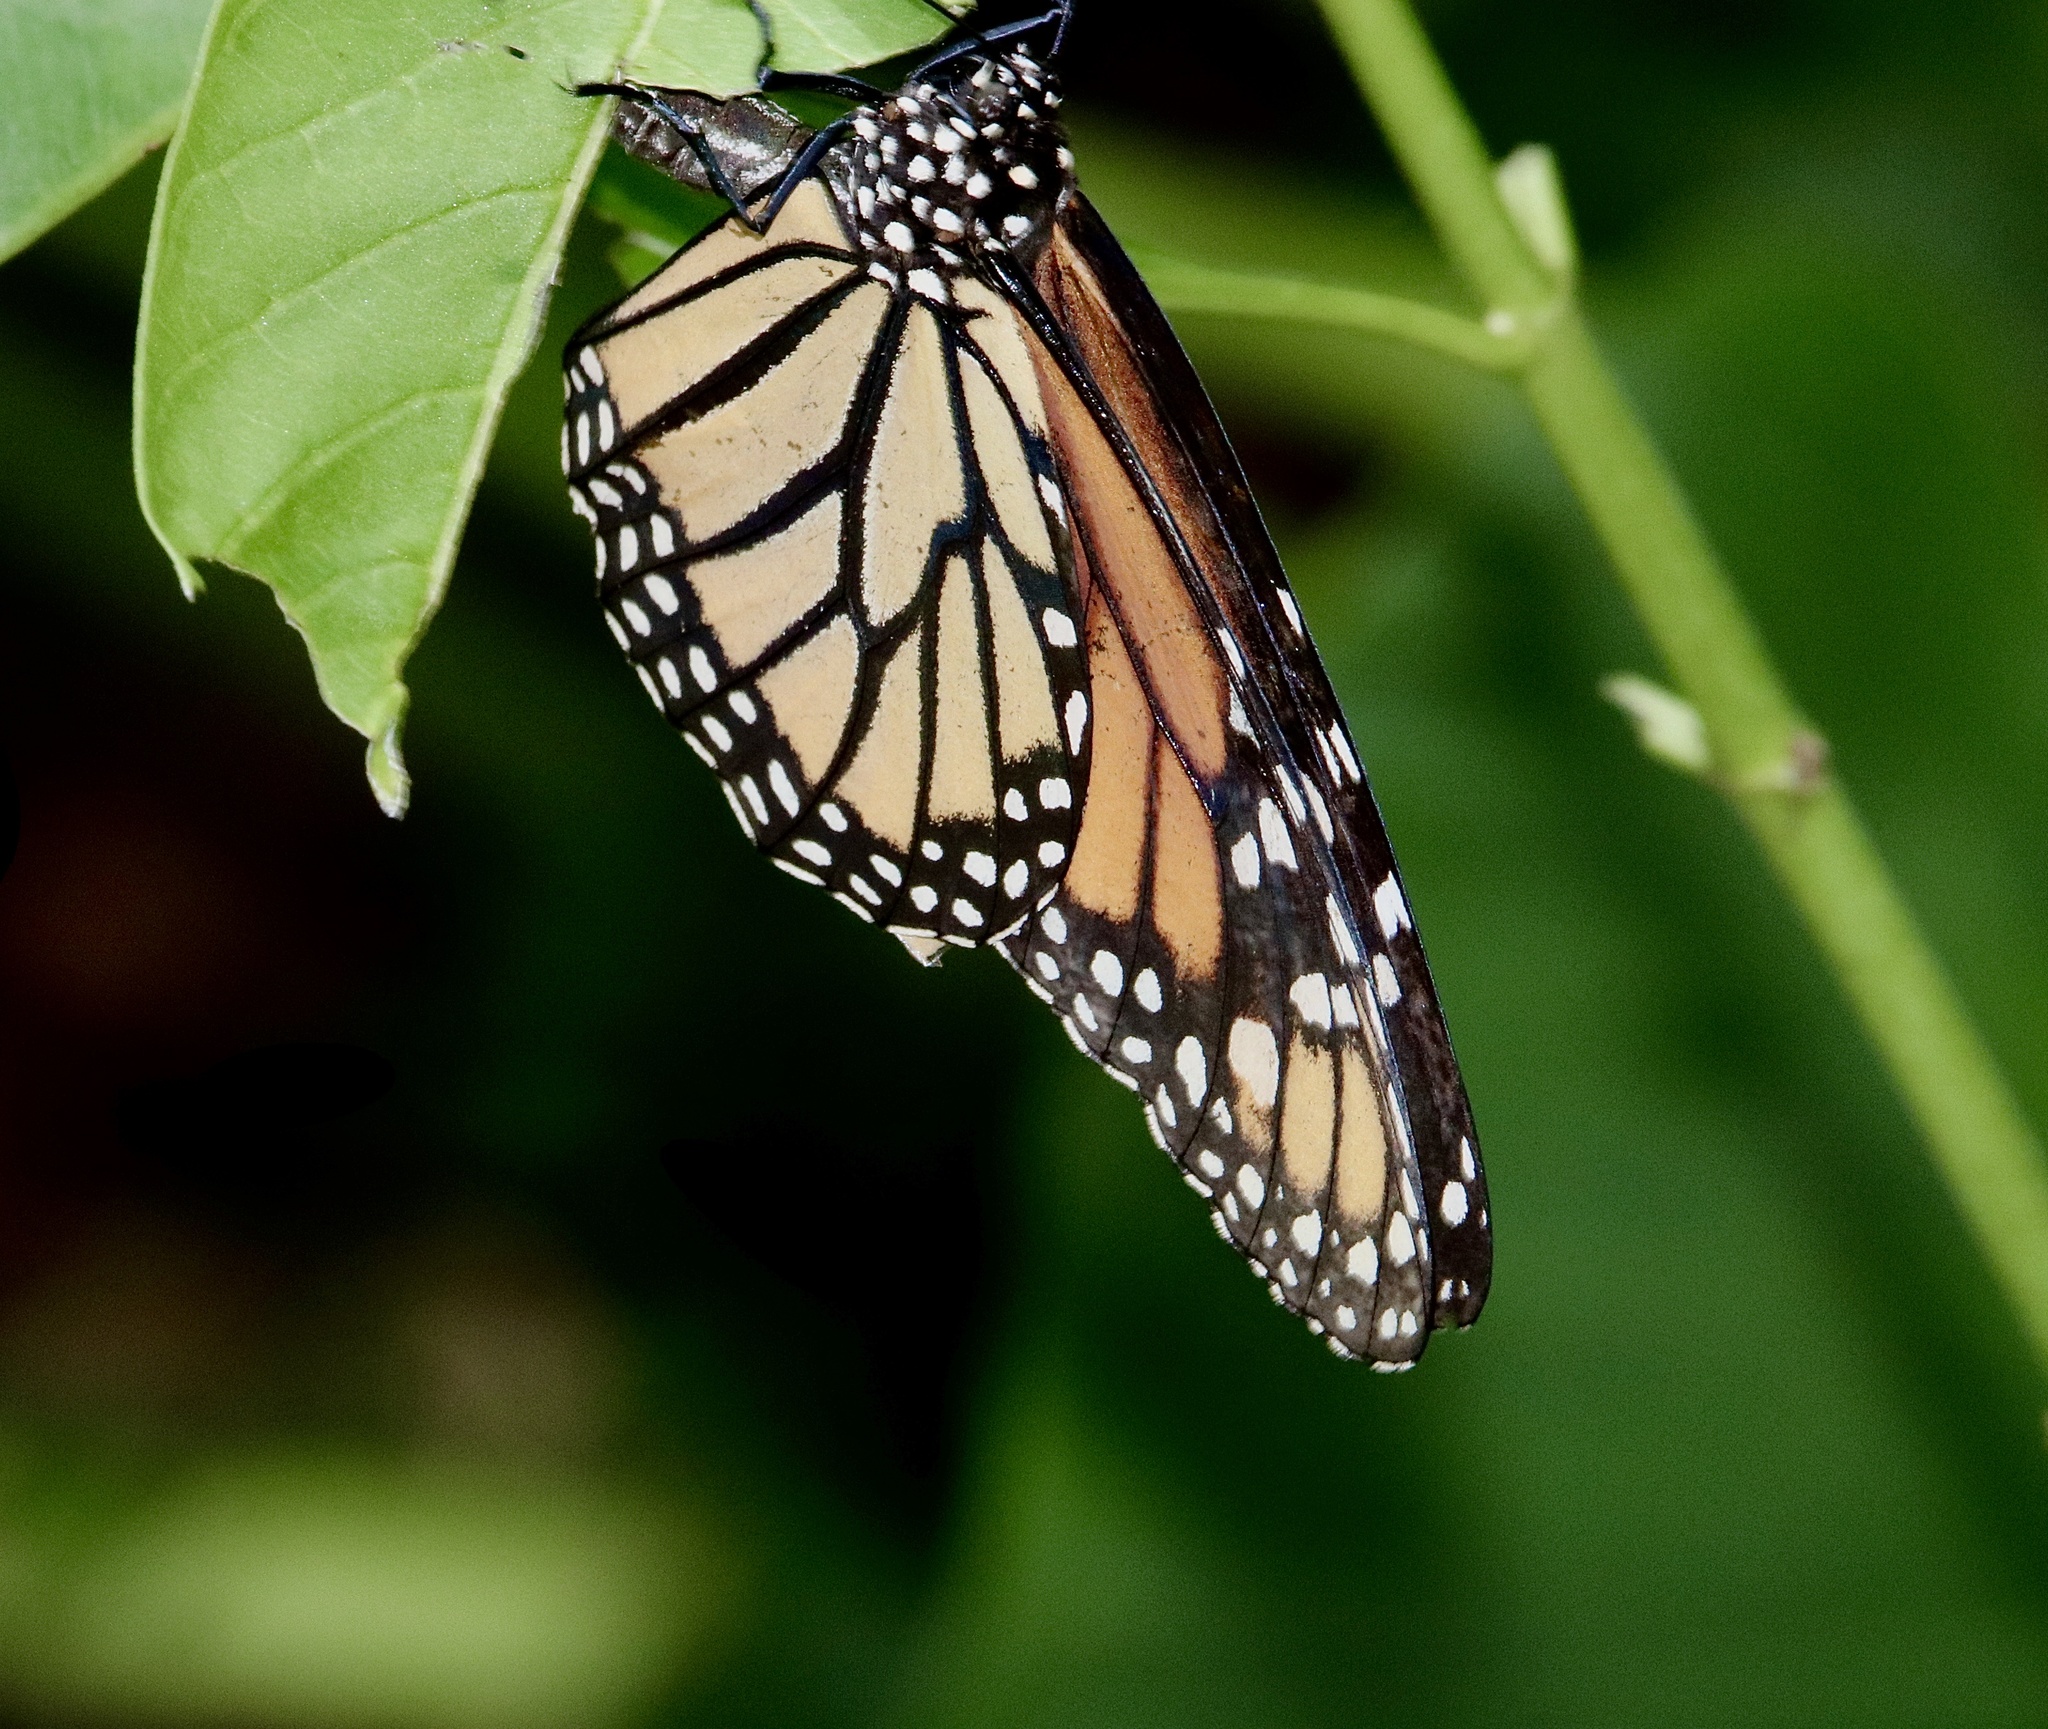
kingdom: Animalia
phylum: Arthropoda
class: Insecta
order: Lepidoptera
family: Nymphalidae
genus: Danaus
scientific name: Danaus plexippus
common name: Monarch
